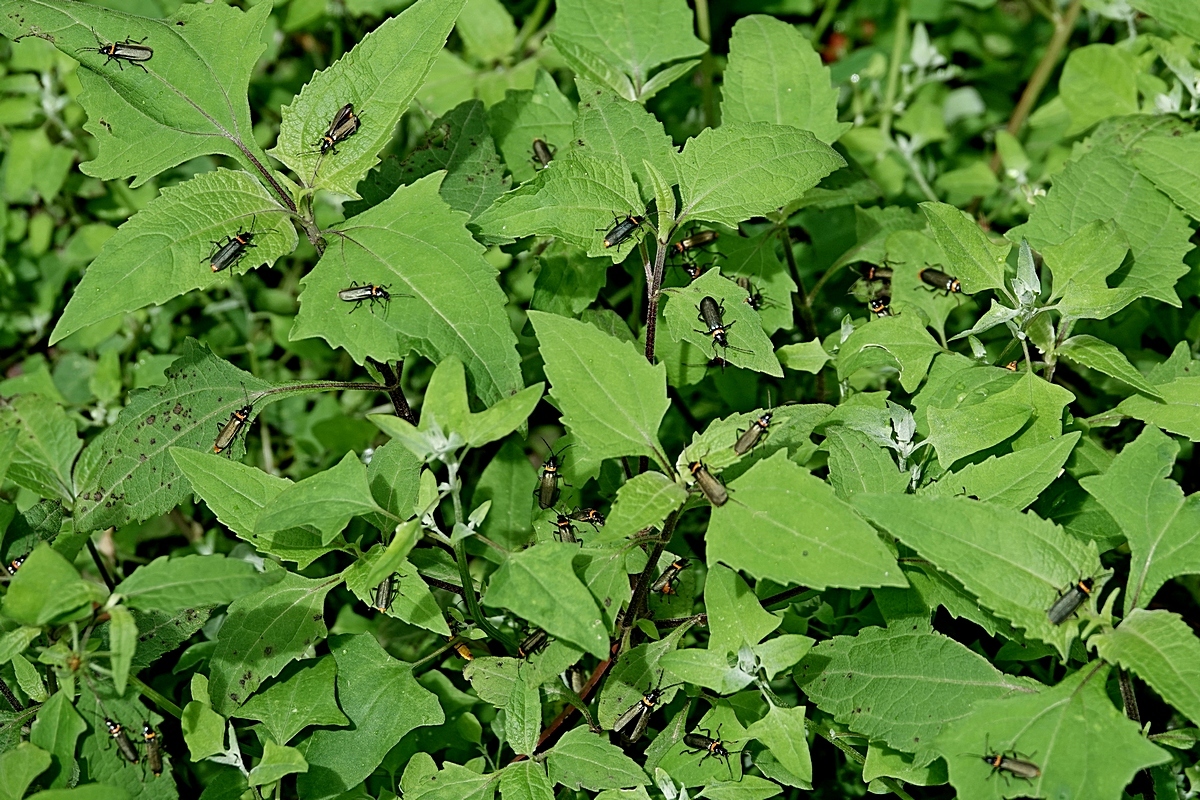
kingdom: Animalia
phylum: Arthropoda
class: Insecta
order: Coleoptera
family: Cantharidae
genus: Chauliognathus
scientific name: Chauliognathus
